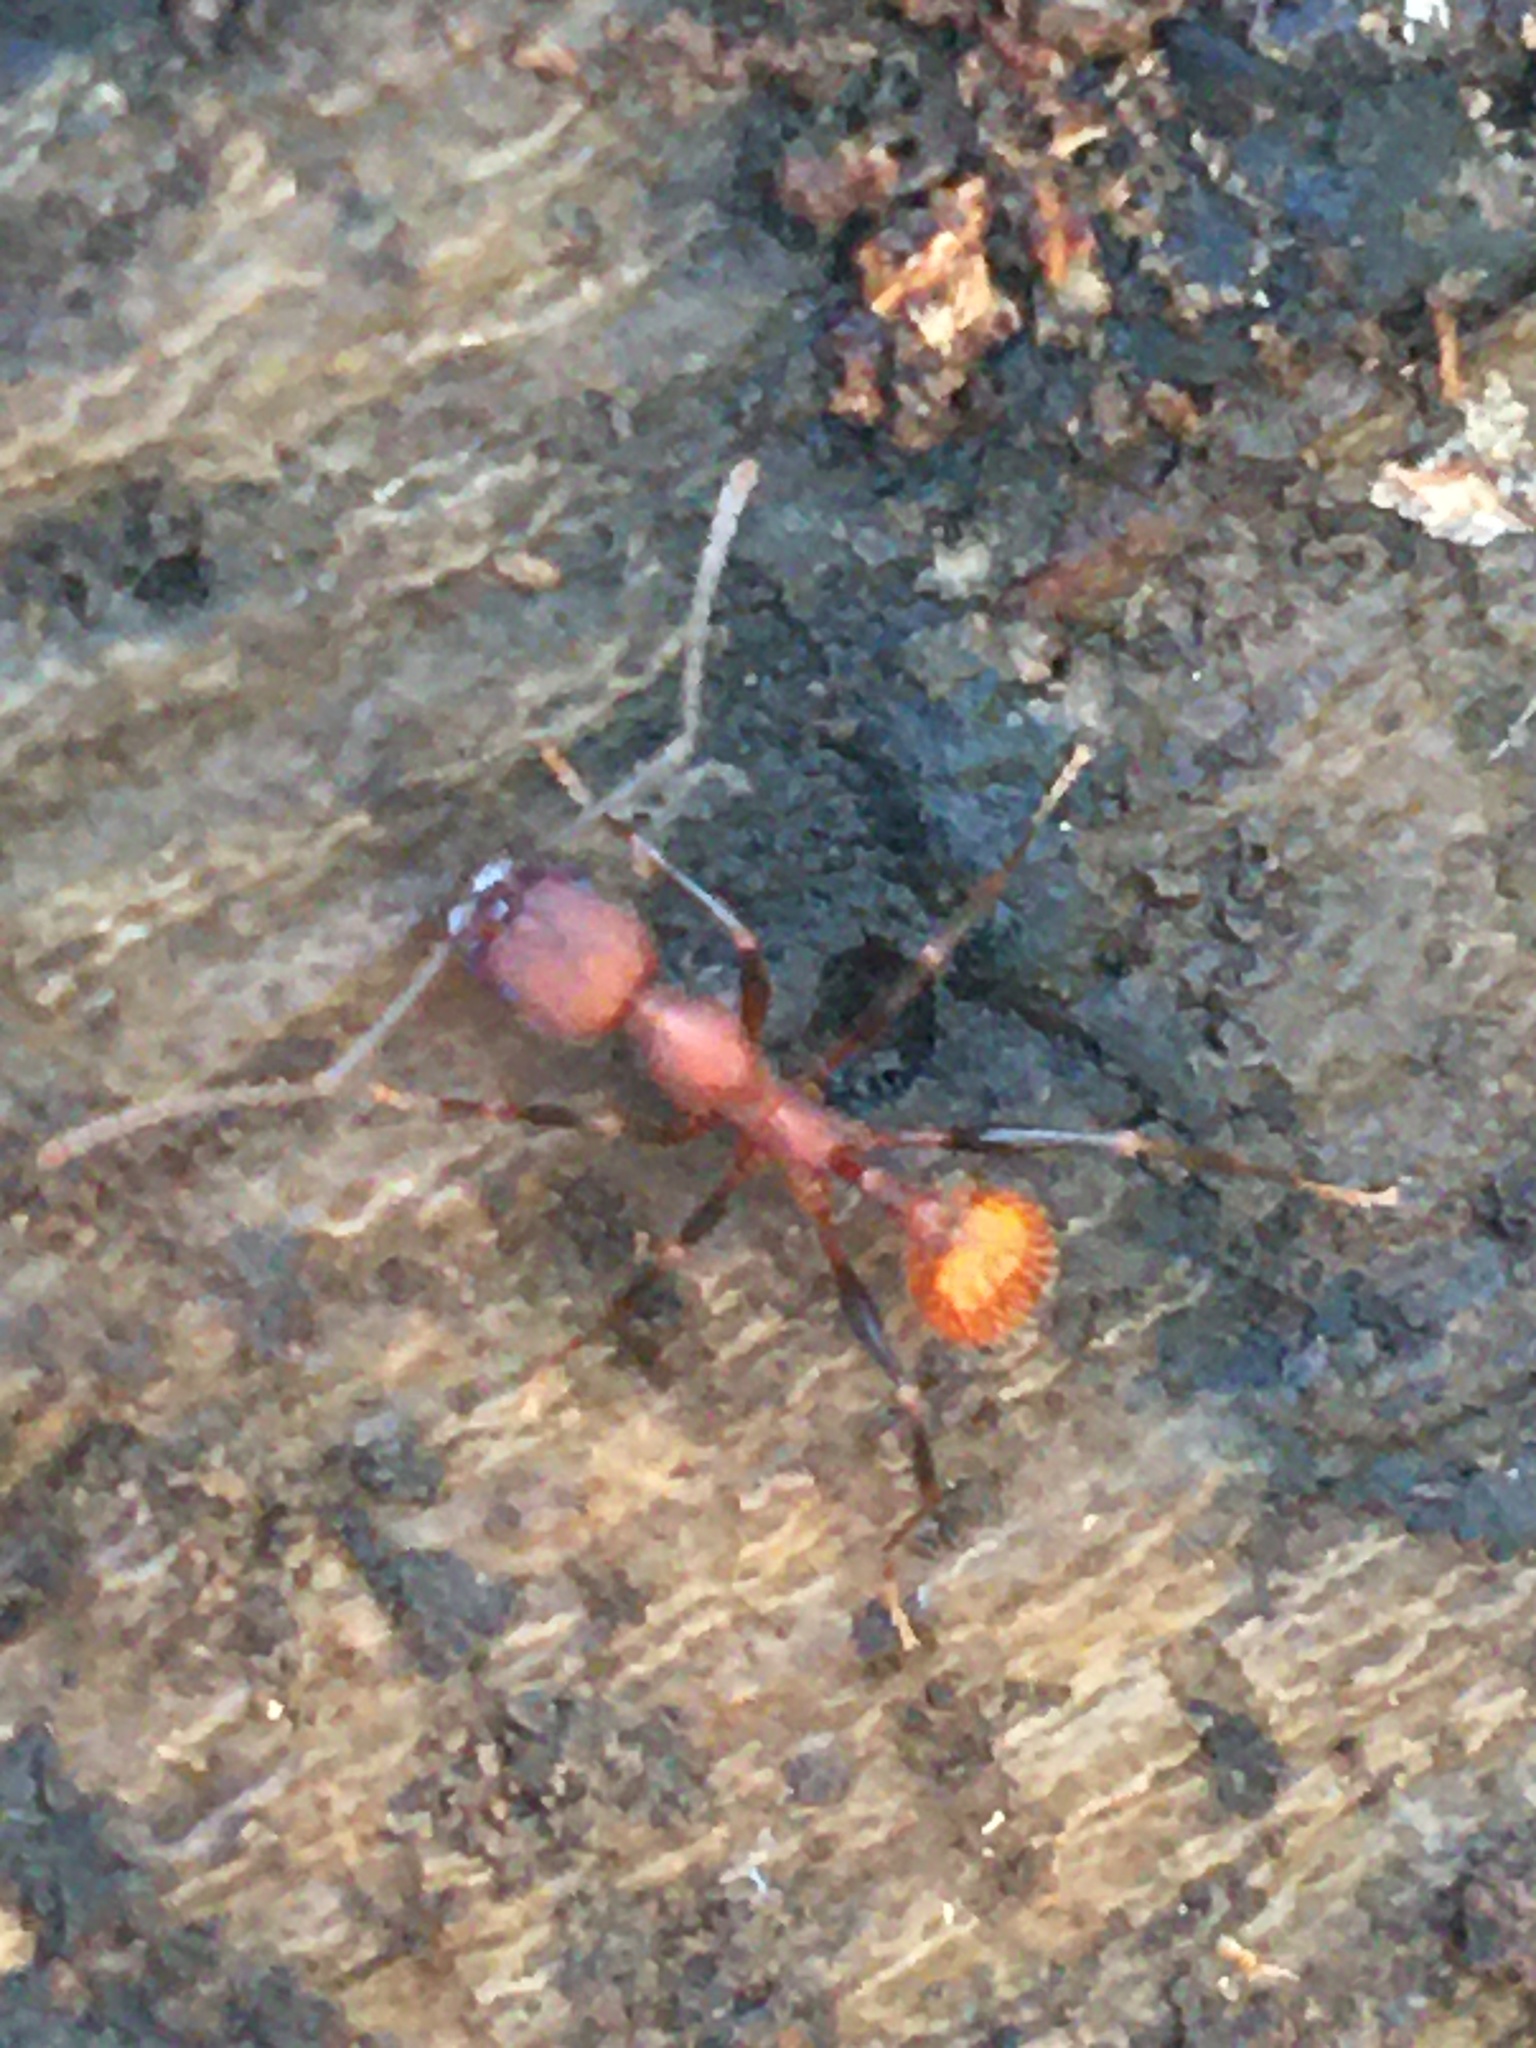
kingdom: Animalia
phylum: Arthropoda
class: Insecta
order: Hymenoptera
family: Formicidae
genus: Aphaenogaster
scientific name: Aphaenogaster lamellidens
